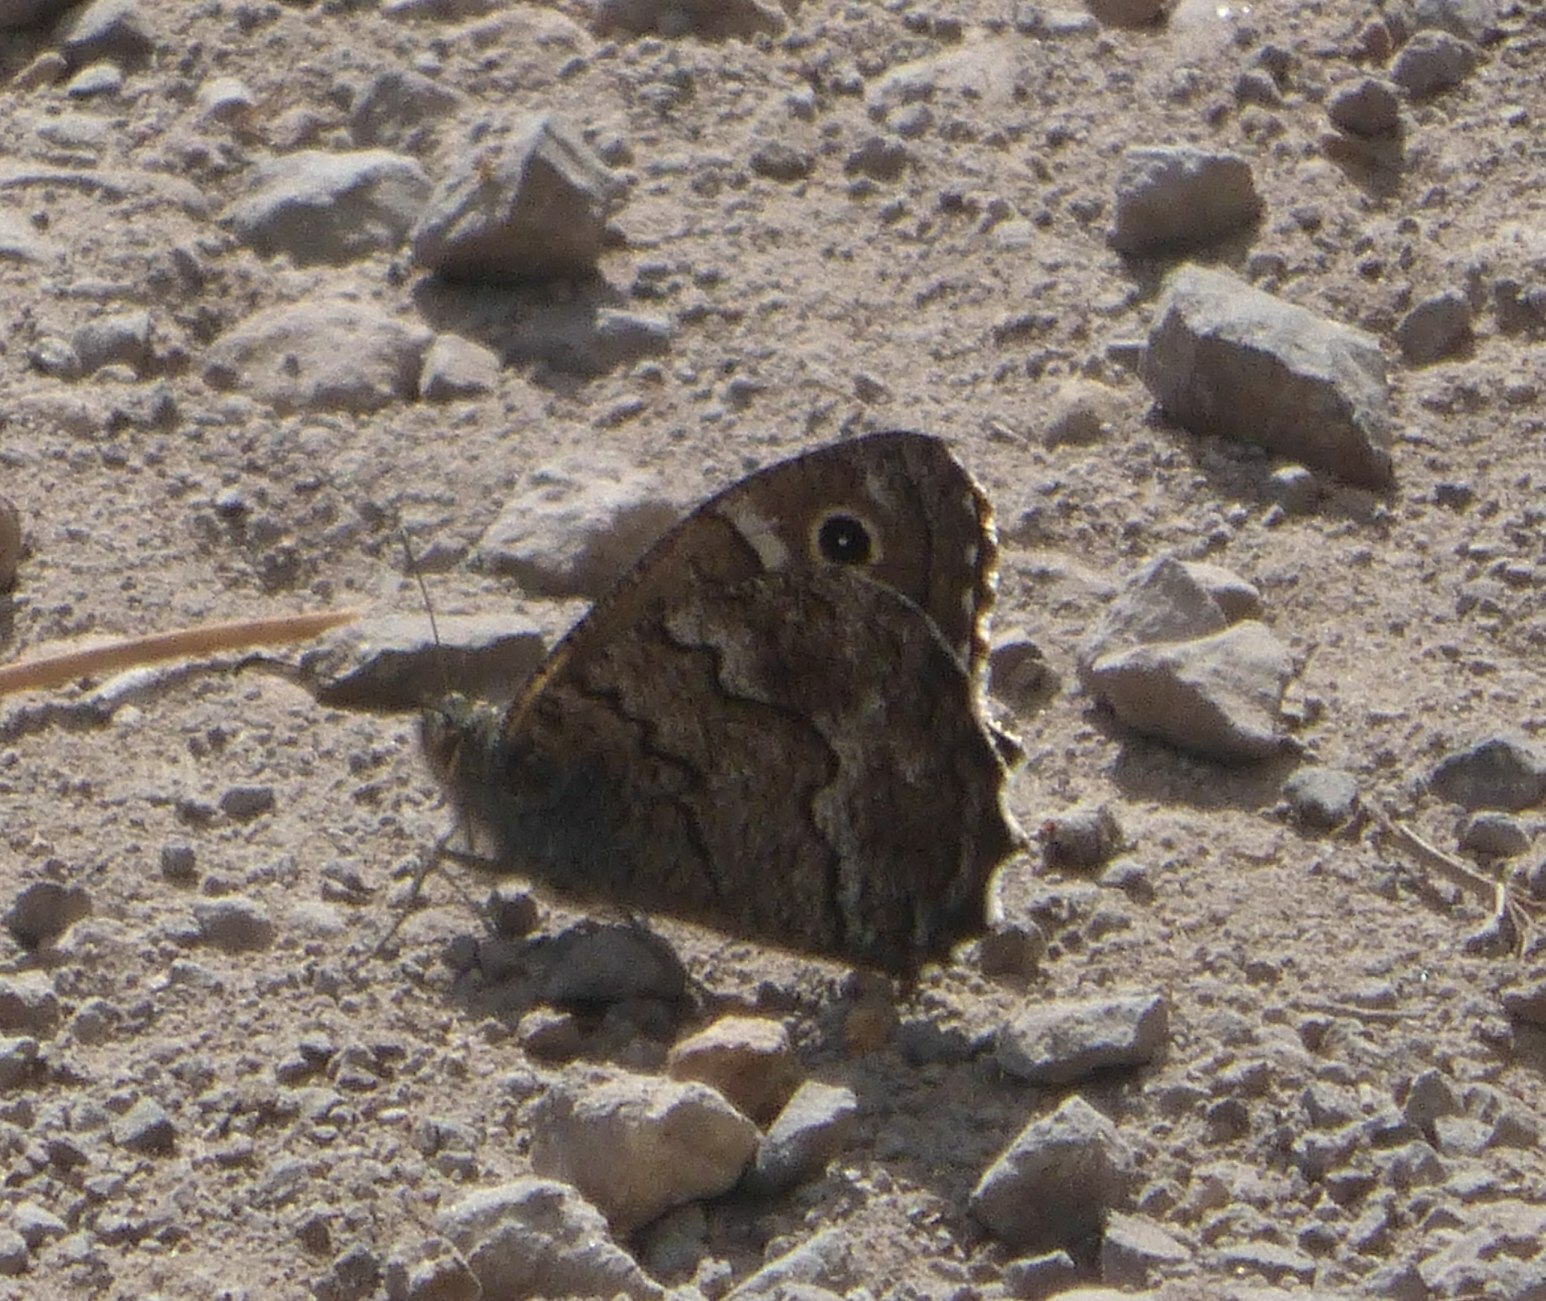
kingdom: Animalia
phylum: Arthropoda
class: Insecta
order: Lepidoptera
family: Nymphalidae
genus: Hipparchia
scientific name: Hipparchia tamadabae
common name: Gran canaria grayling
